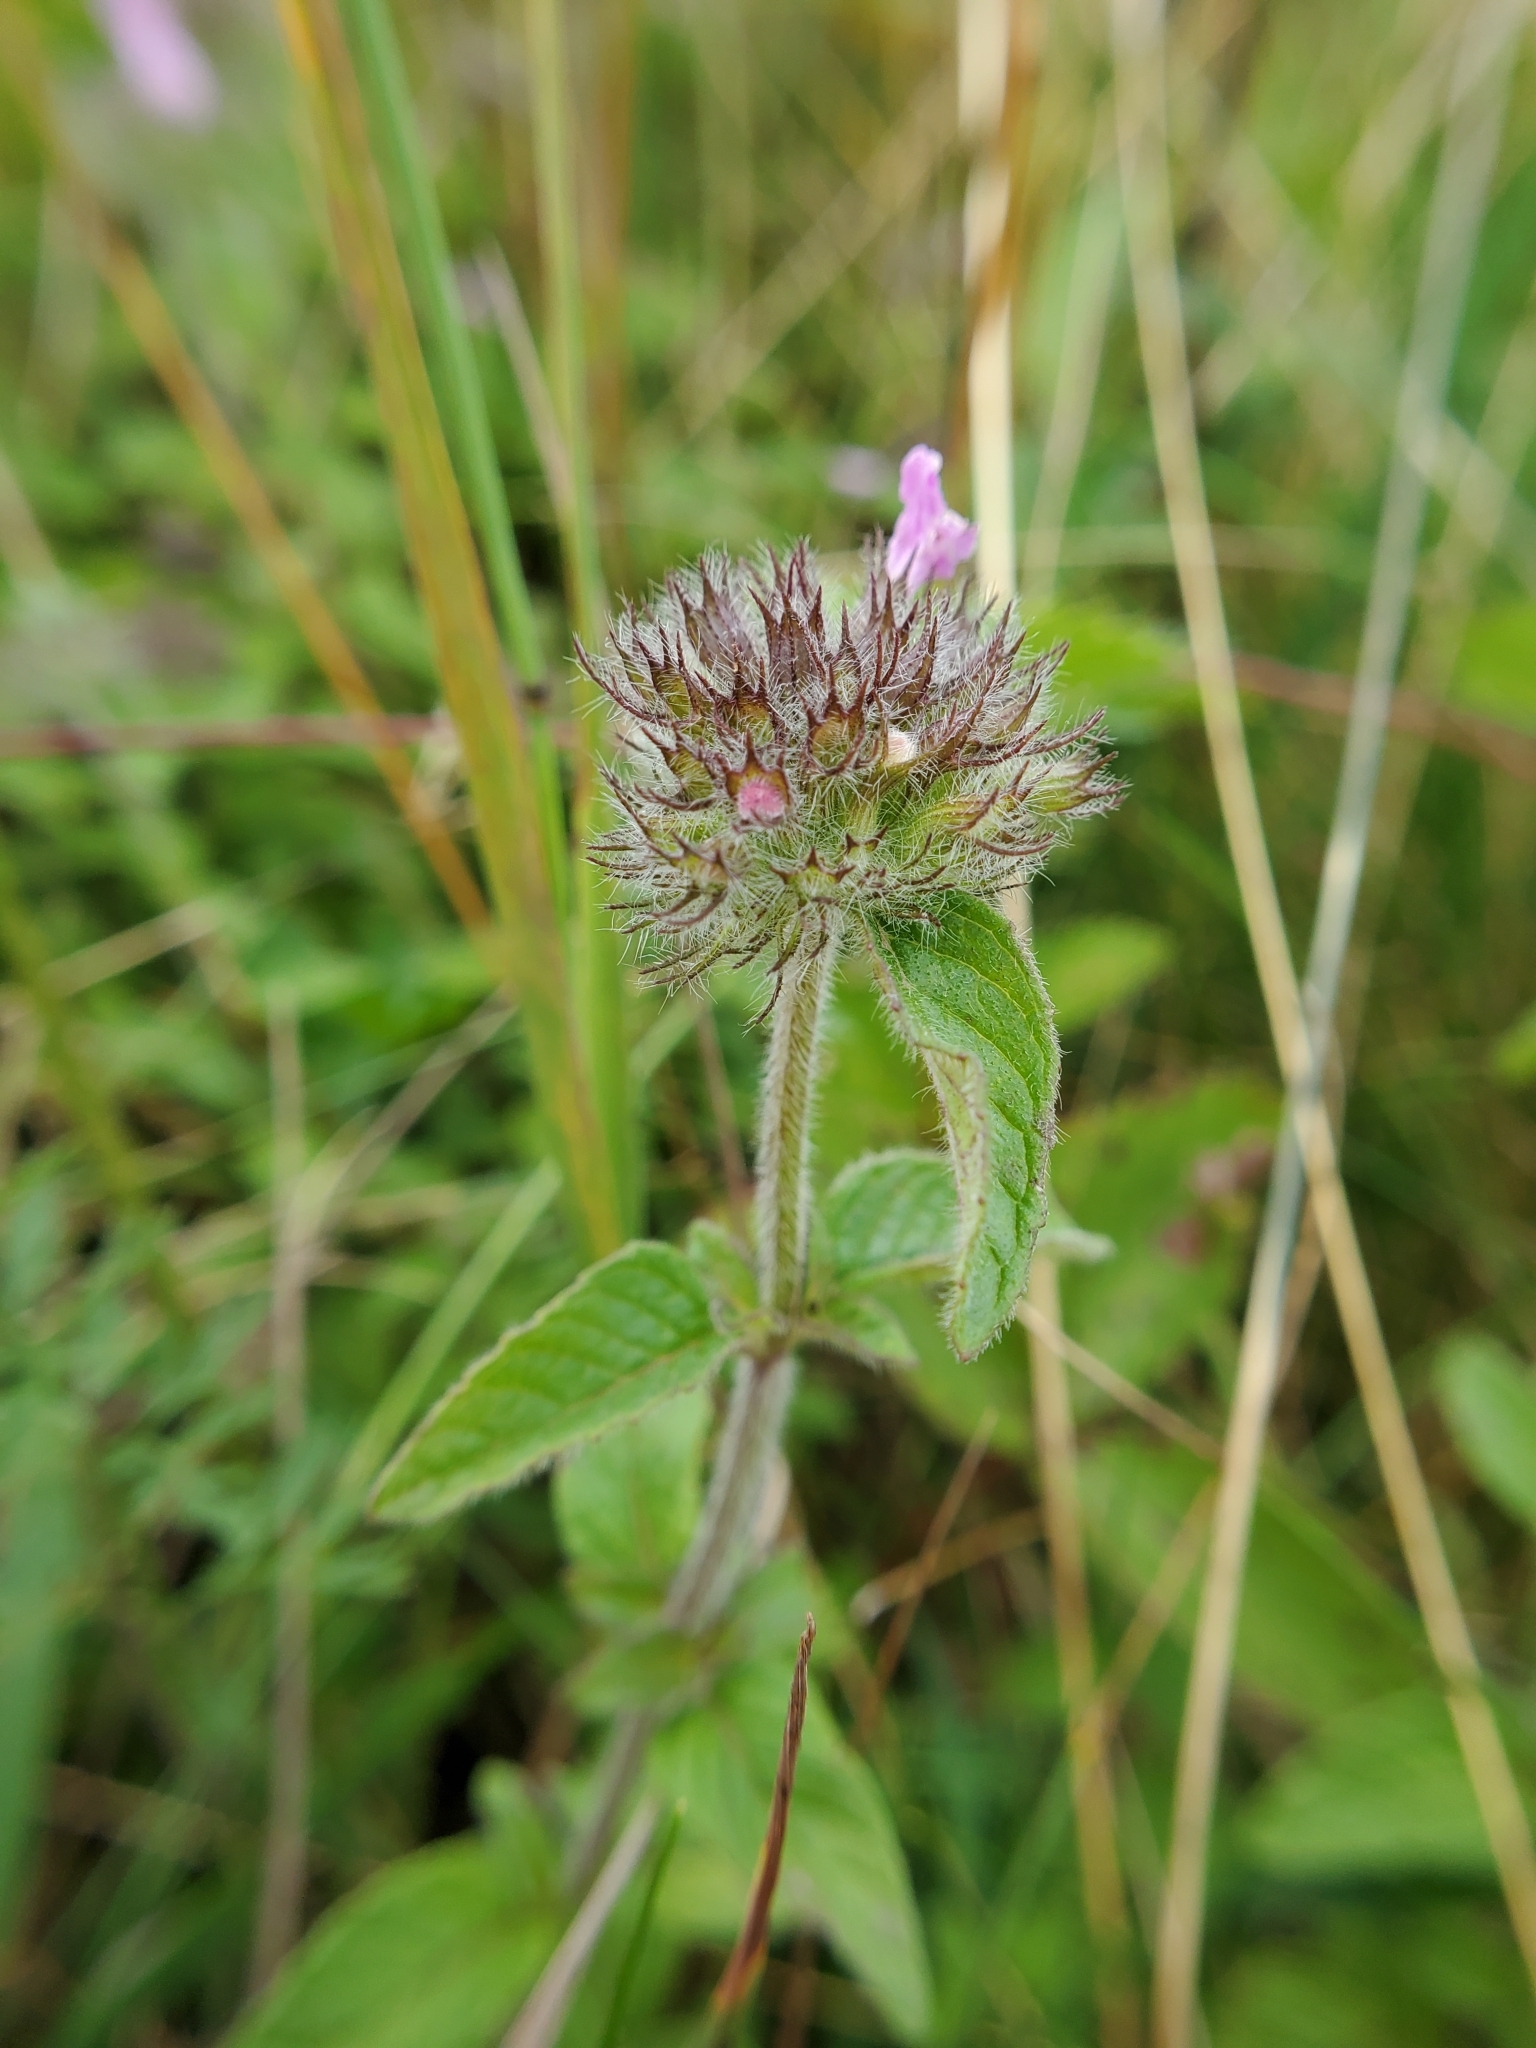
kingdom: Plantae
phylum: Tracheophyta
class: Magnoliopsida
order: Lamiales
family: Lamiaceae
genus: Clinopodium
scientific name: Clinopodium vulgare
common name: Wild basil
